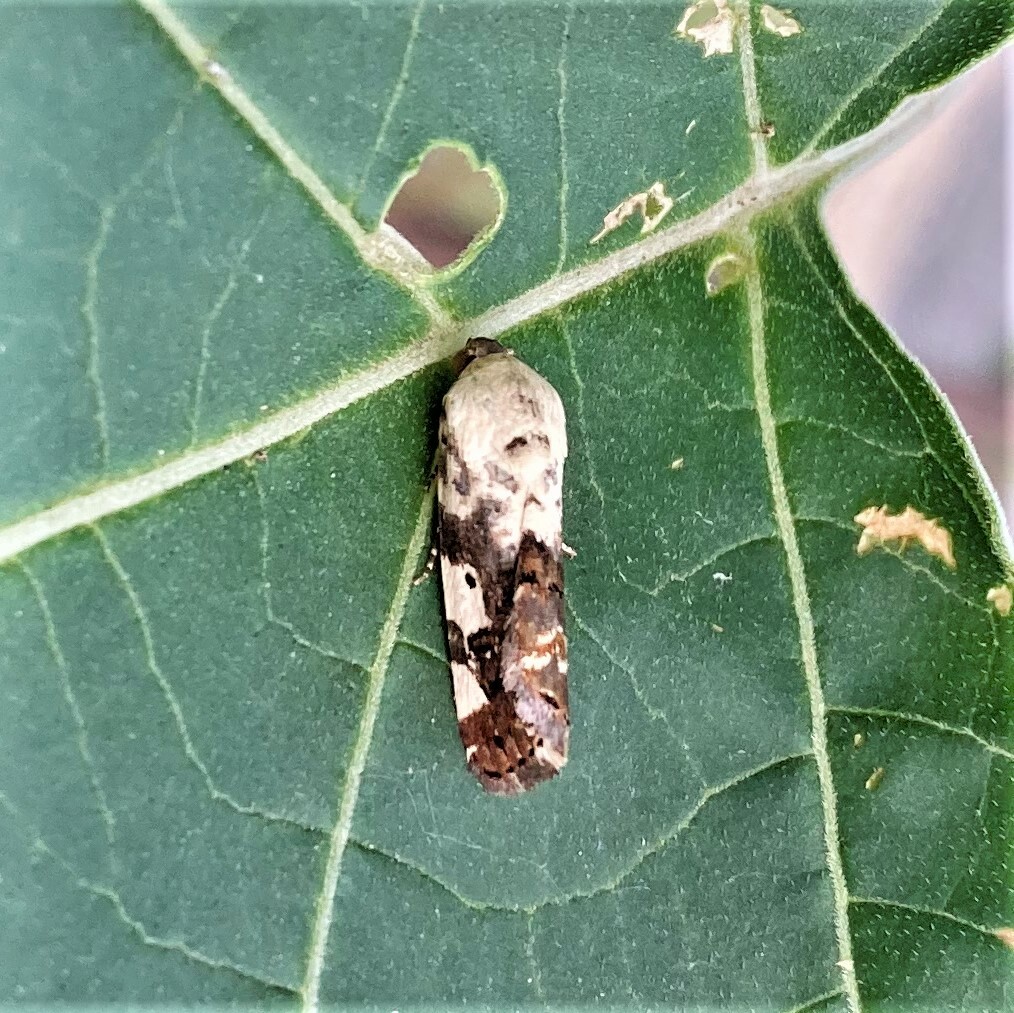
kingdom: Animalia
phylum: Arthropoda
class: Insecta
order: Lepidoptera
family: Noctuidae
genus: Acontia
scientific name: Acontia aprica
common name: Nun
